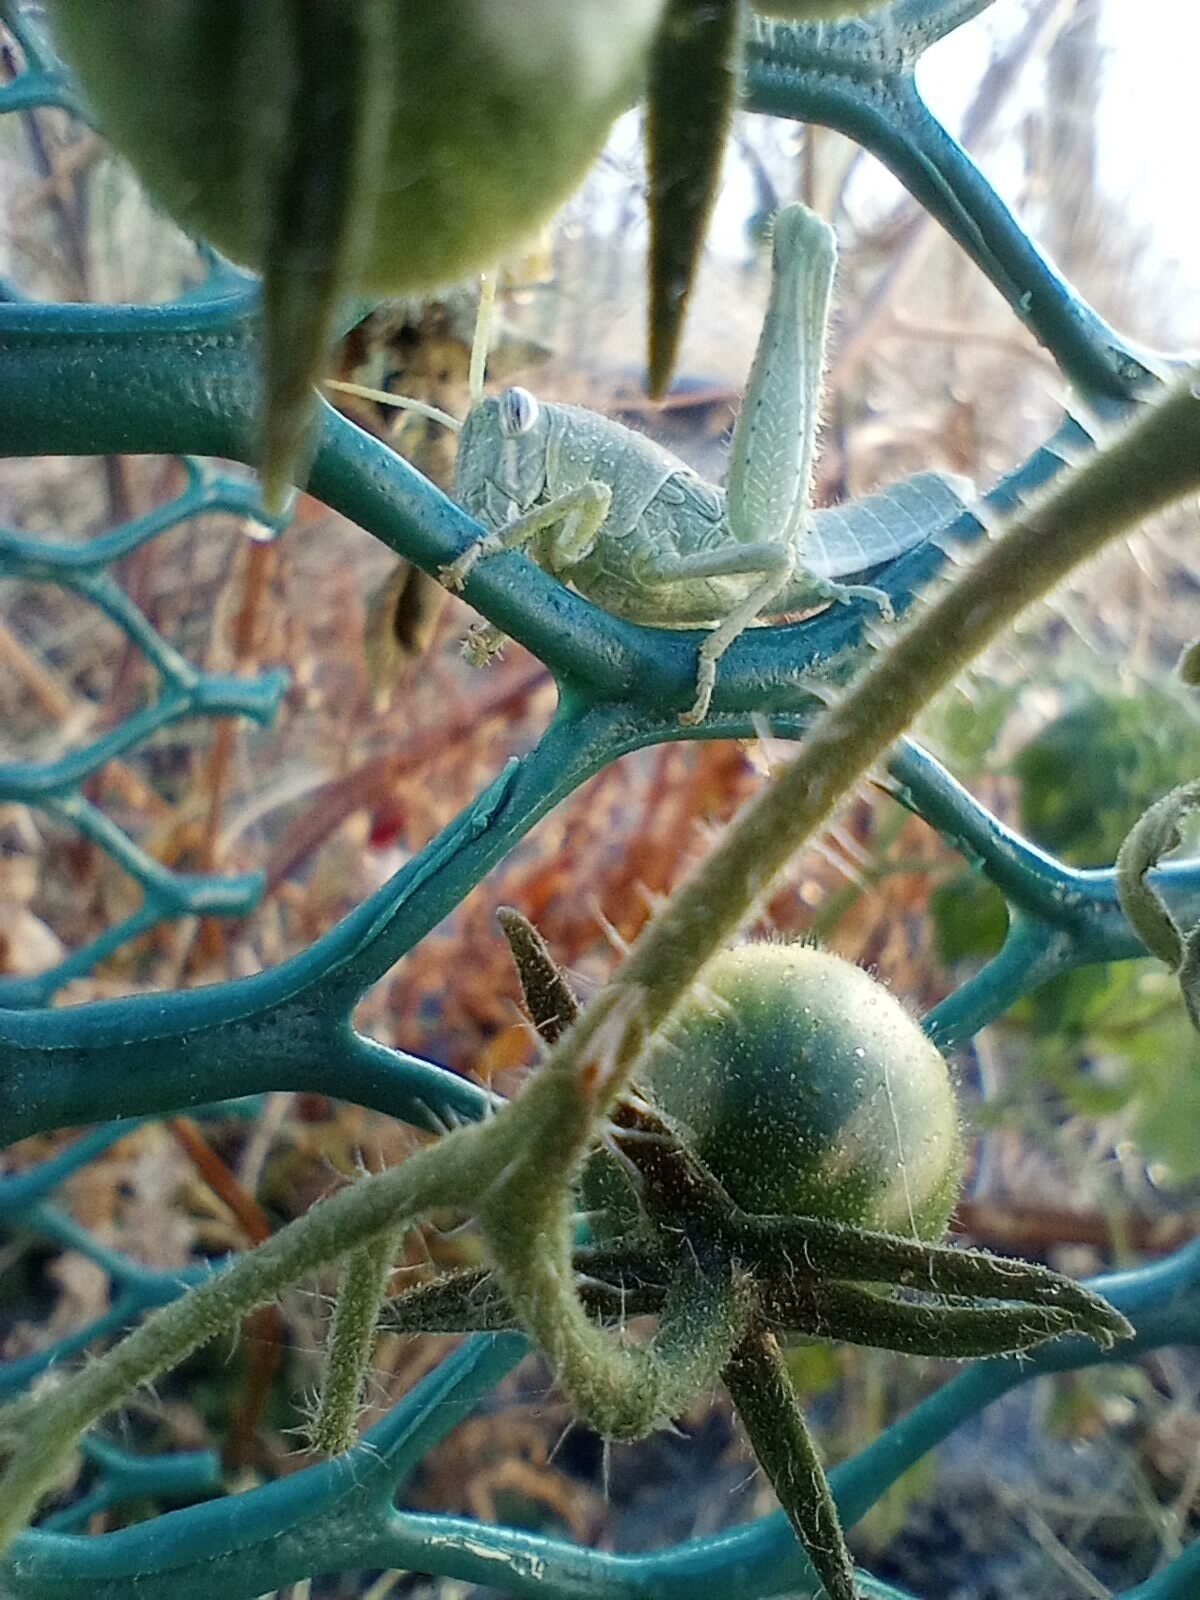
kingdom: Animalia
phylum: Arthropoda
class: Insecta
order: Orthoptera
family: Acrididae
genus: Schistocerca
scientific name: Schistocerca nitens
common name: Vagrant grasshopper
